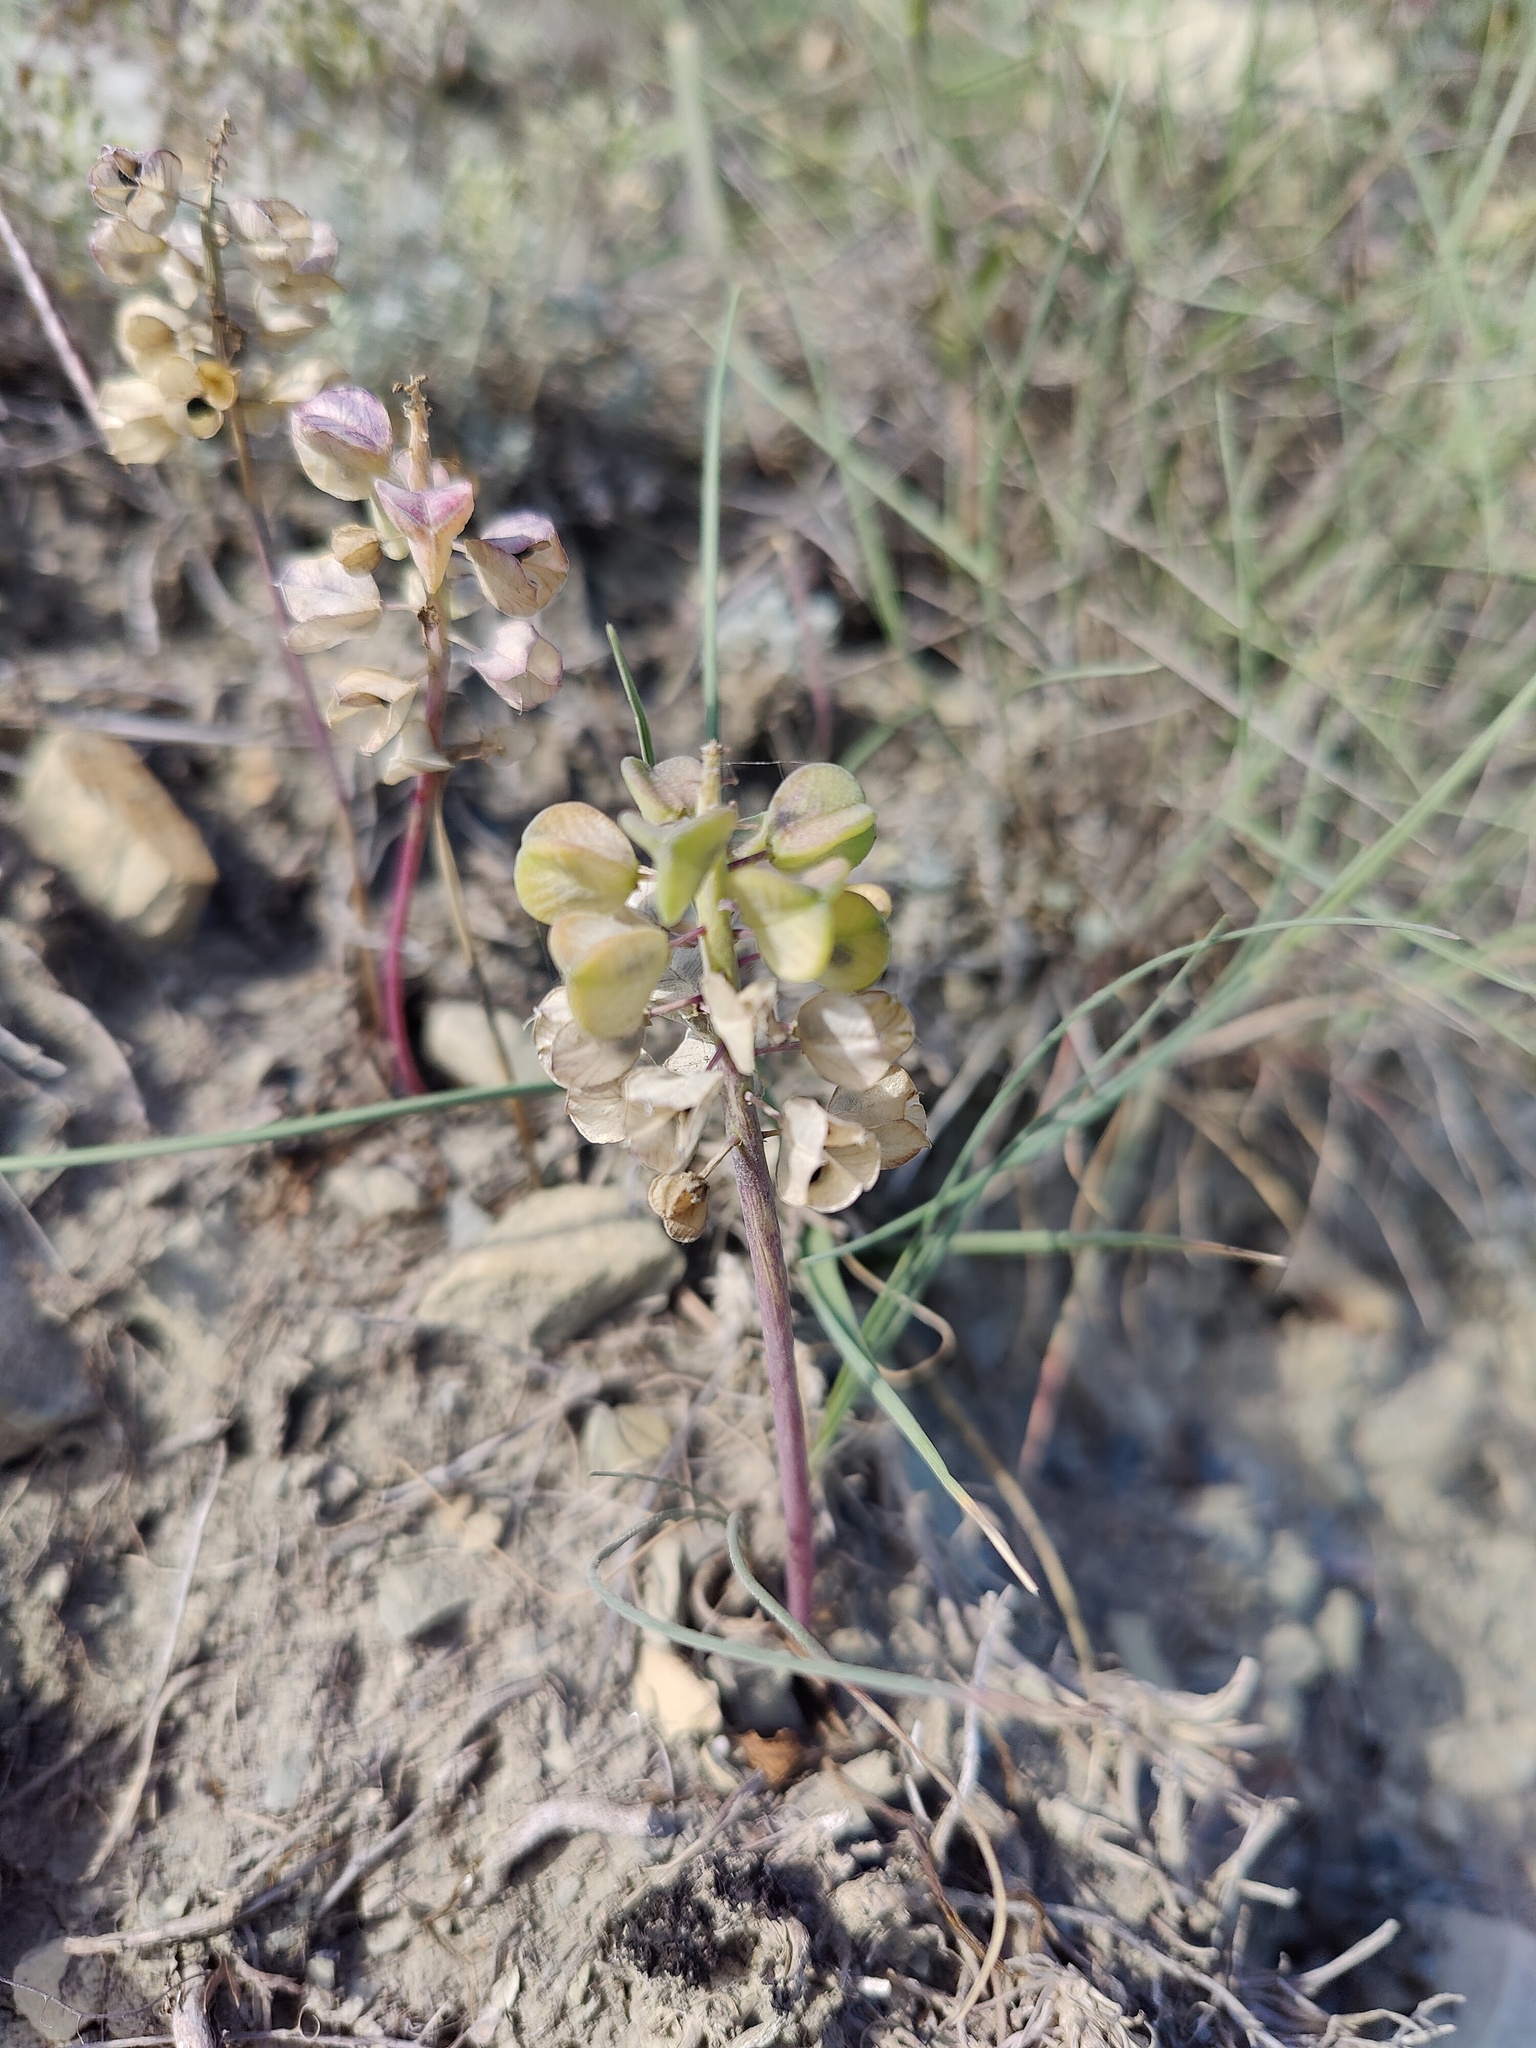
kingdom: Plantae
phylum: Tracheophyta
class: Liliopsida
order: Asparagales
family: Asparagaceae
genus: Muscari
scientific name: Muscari neglectum
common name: Grape-hyacinth
